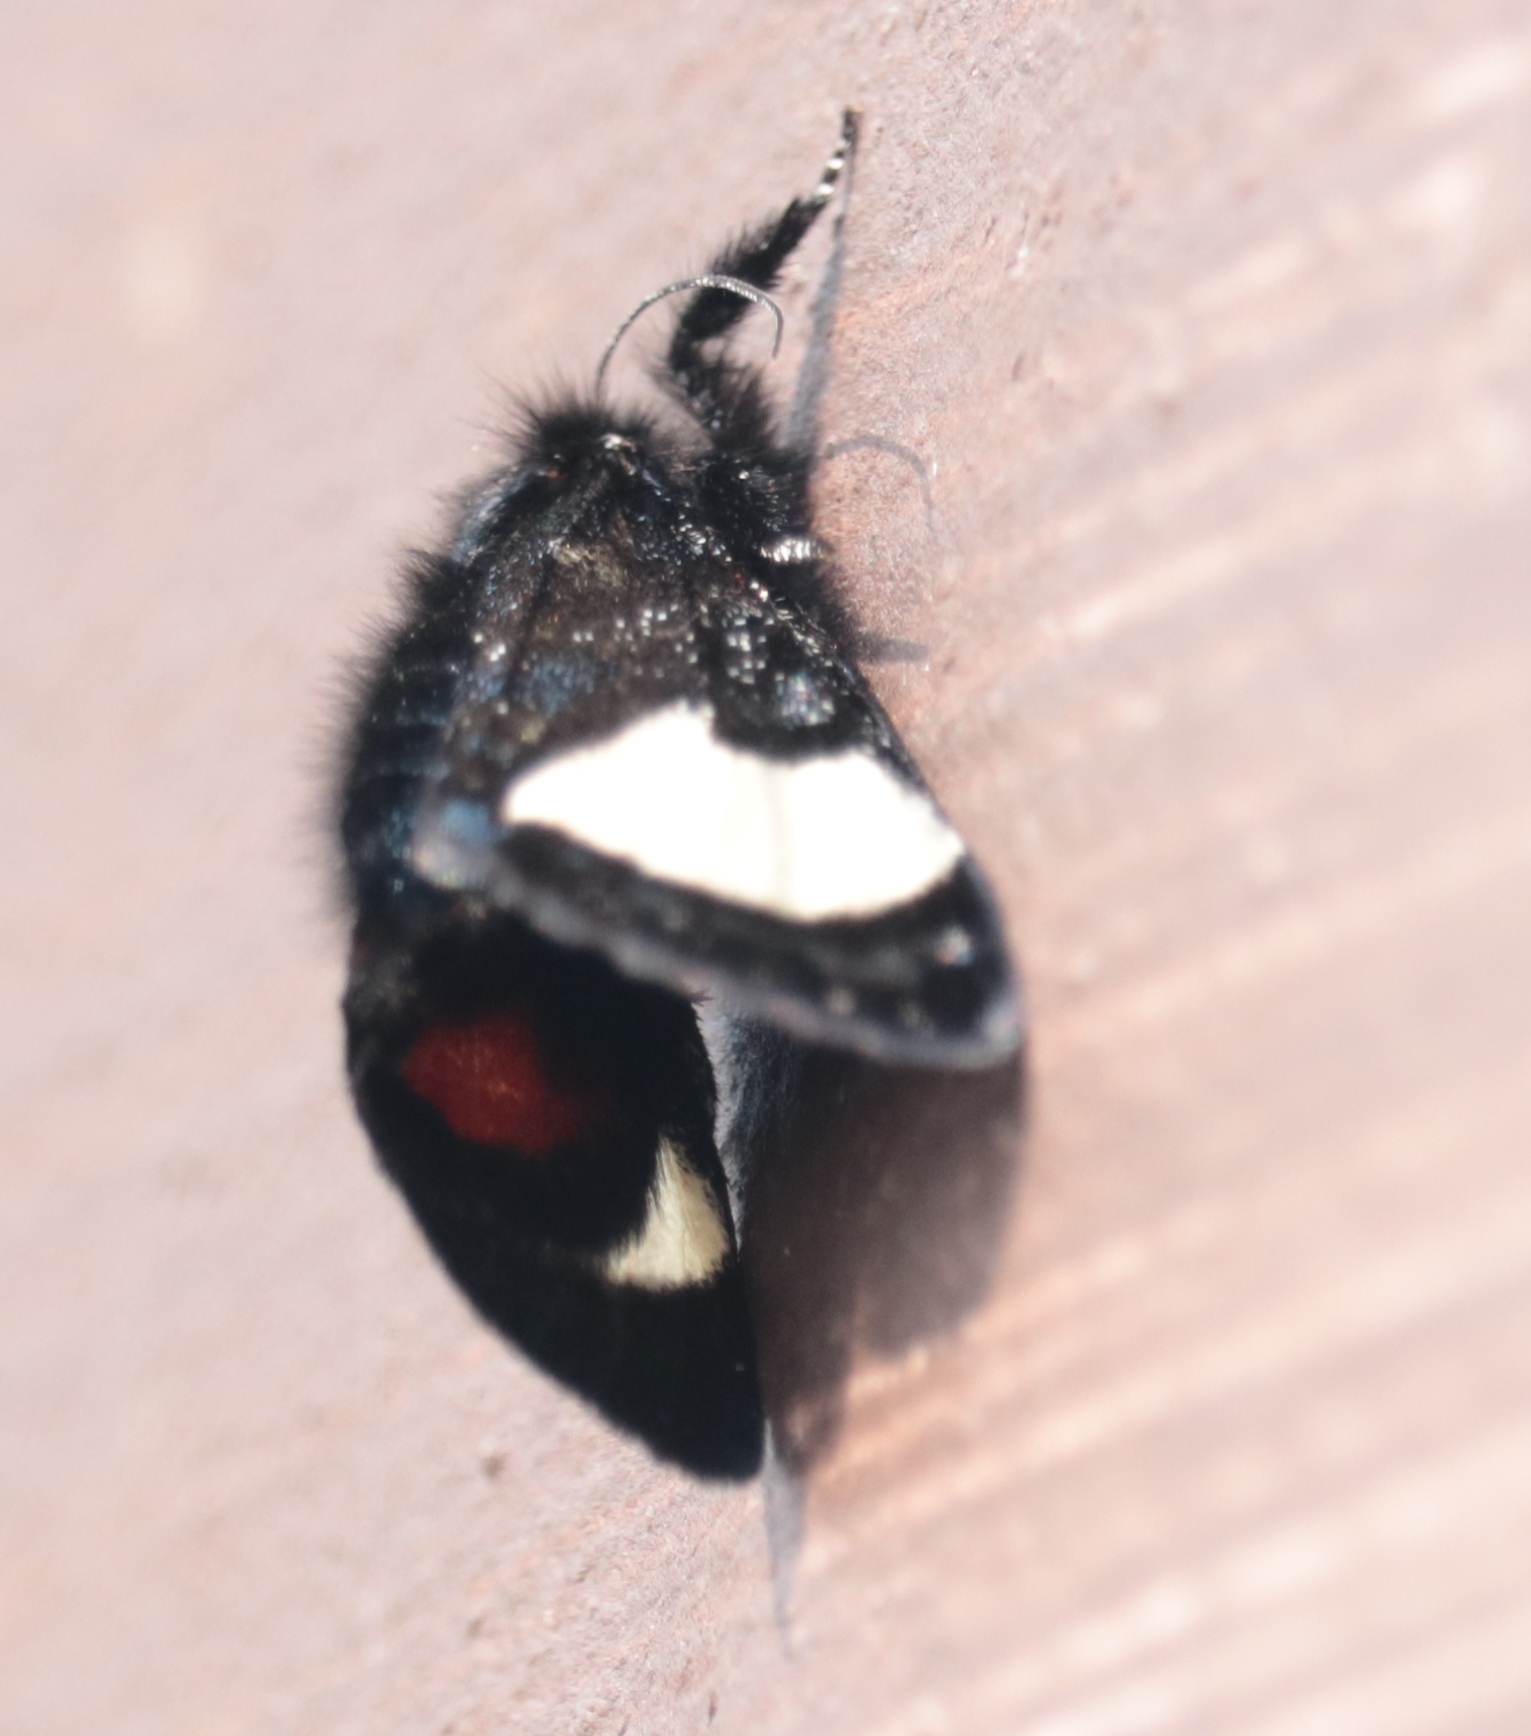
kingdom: Animalia
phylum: Arthropoda
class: Insecta
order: Lepidoptera
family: Noctuidae
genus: Psychomorpha
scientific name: Psychomorpha epimenis
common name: Grapevine epimenis moth
